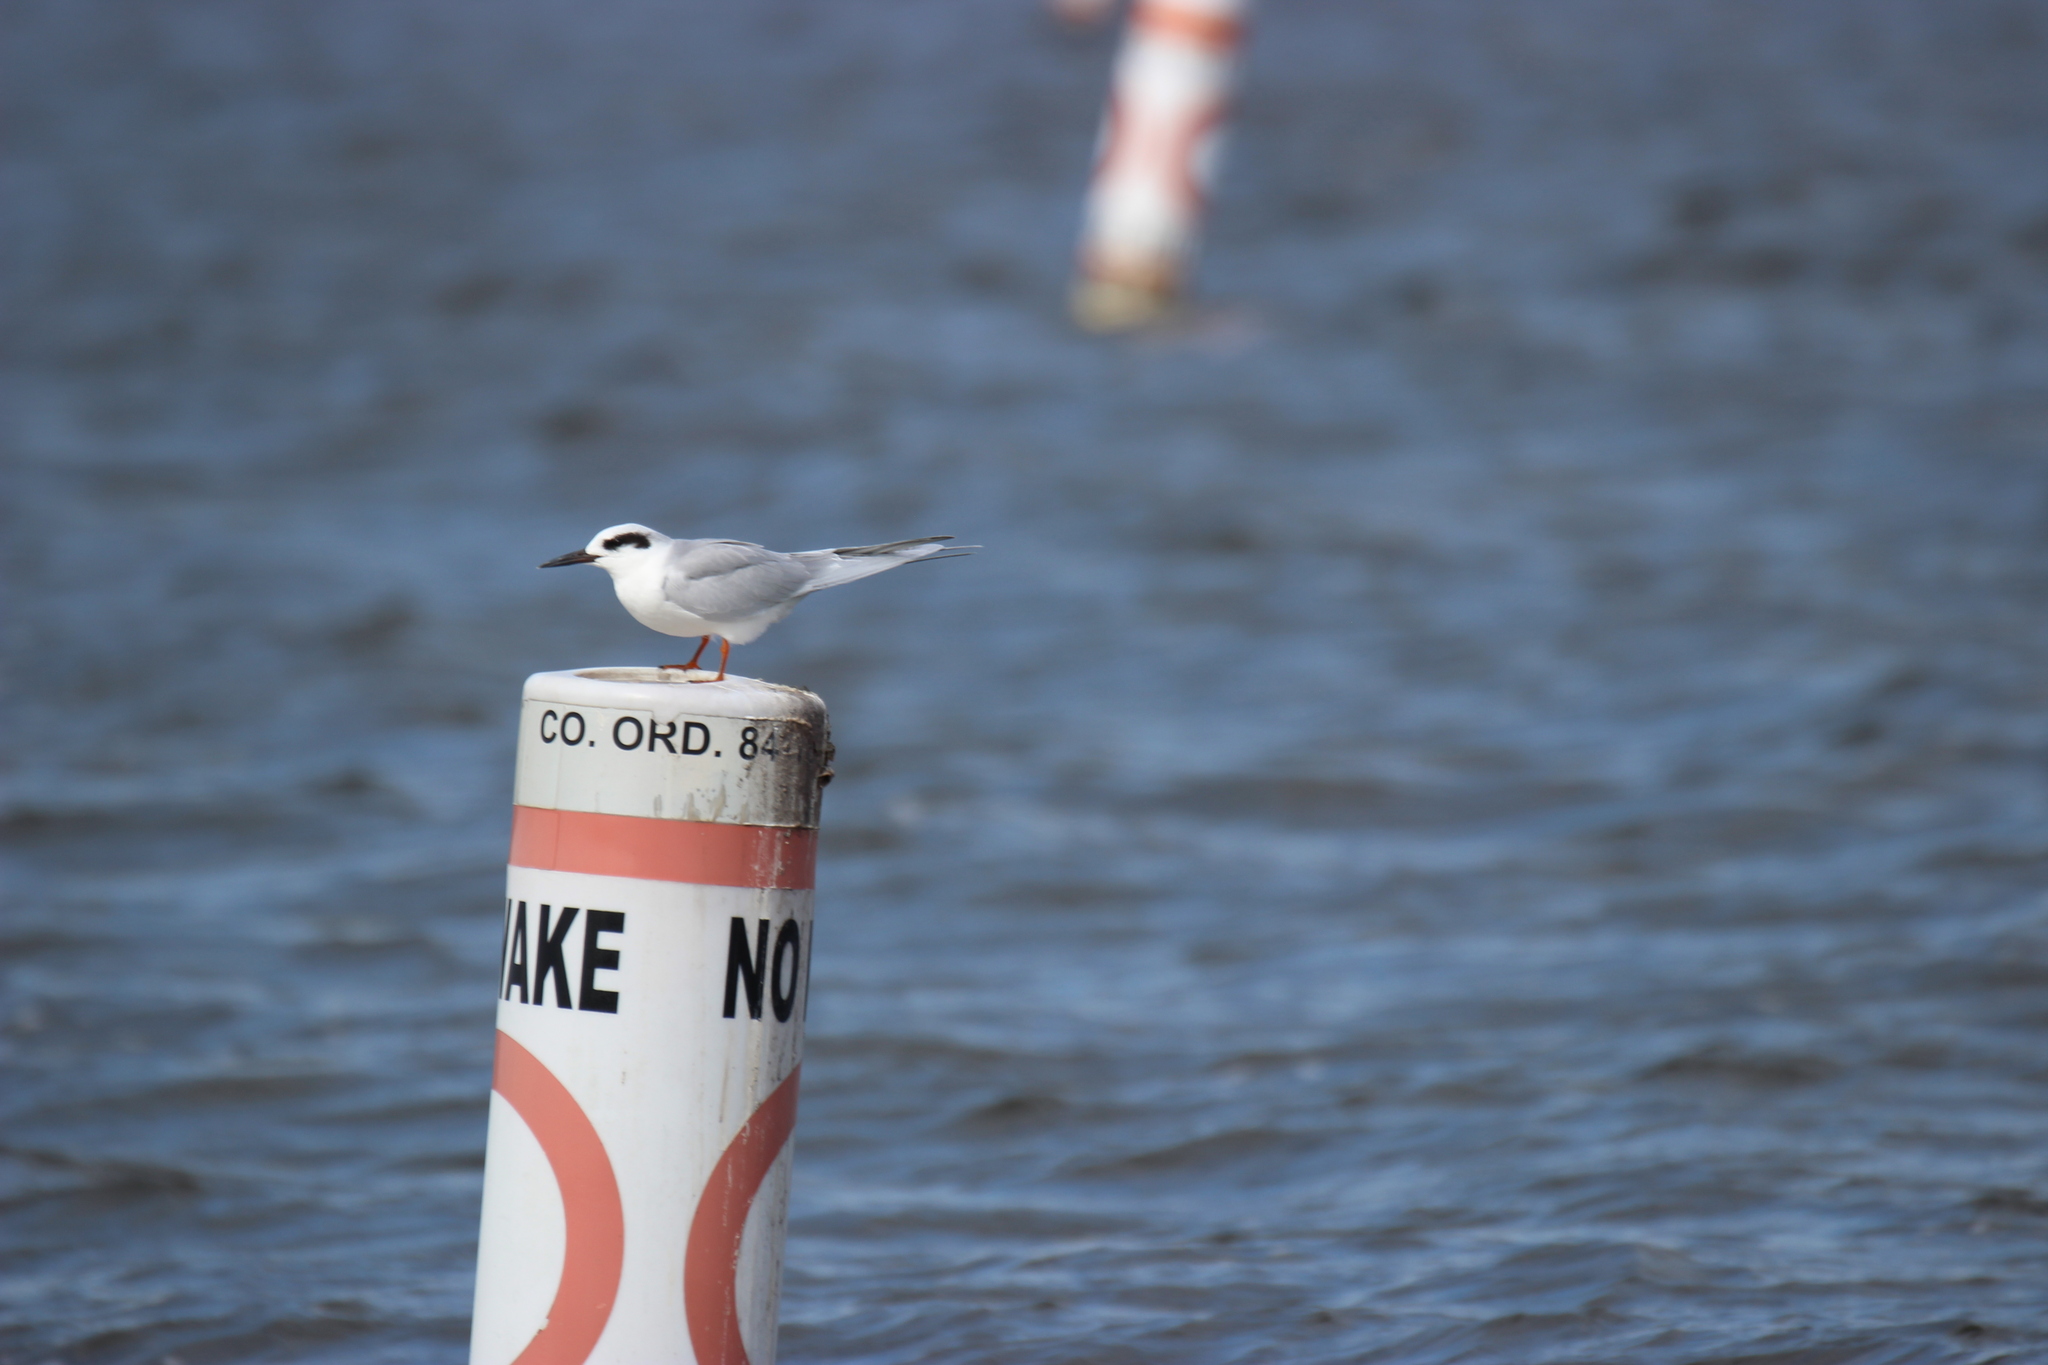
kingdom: Animalia
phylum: Chordata
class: Aves
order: Charadriiformes
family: Laridae
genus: Sterna
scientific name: Sterna forsteri
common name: Forster's tern
